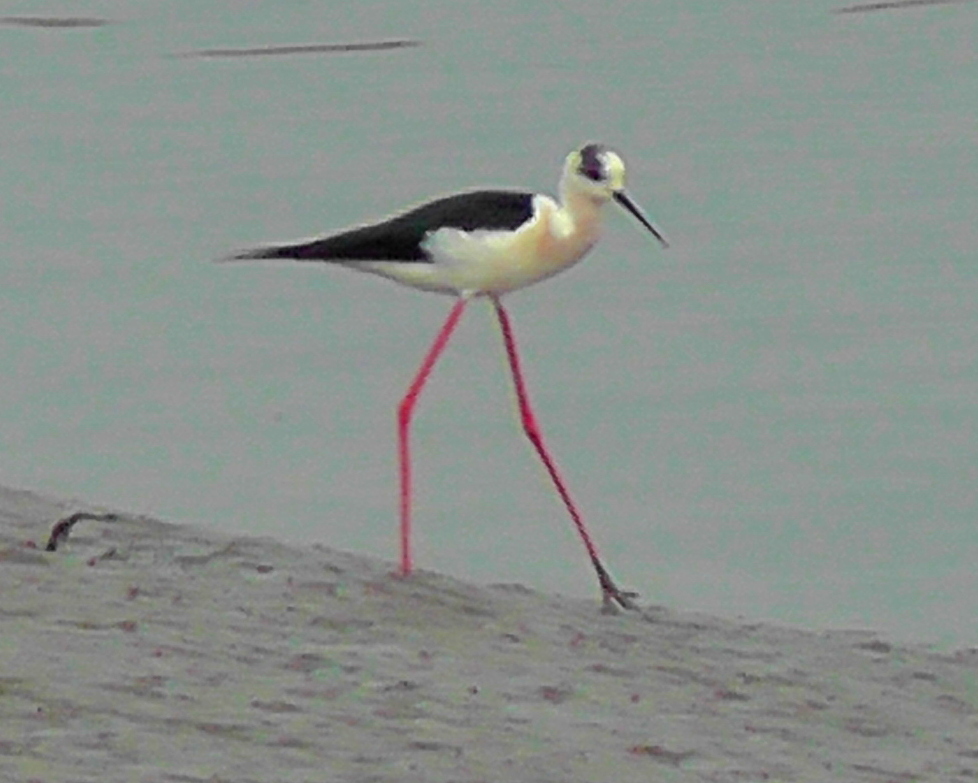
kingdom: Animalia
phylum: Chordata
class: Aves
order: Charadriiformes
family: Recurvirostridae
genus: Himantopus
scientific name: Himantopus himantopus
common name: Black-winged stilt
